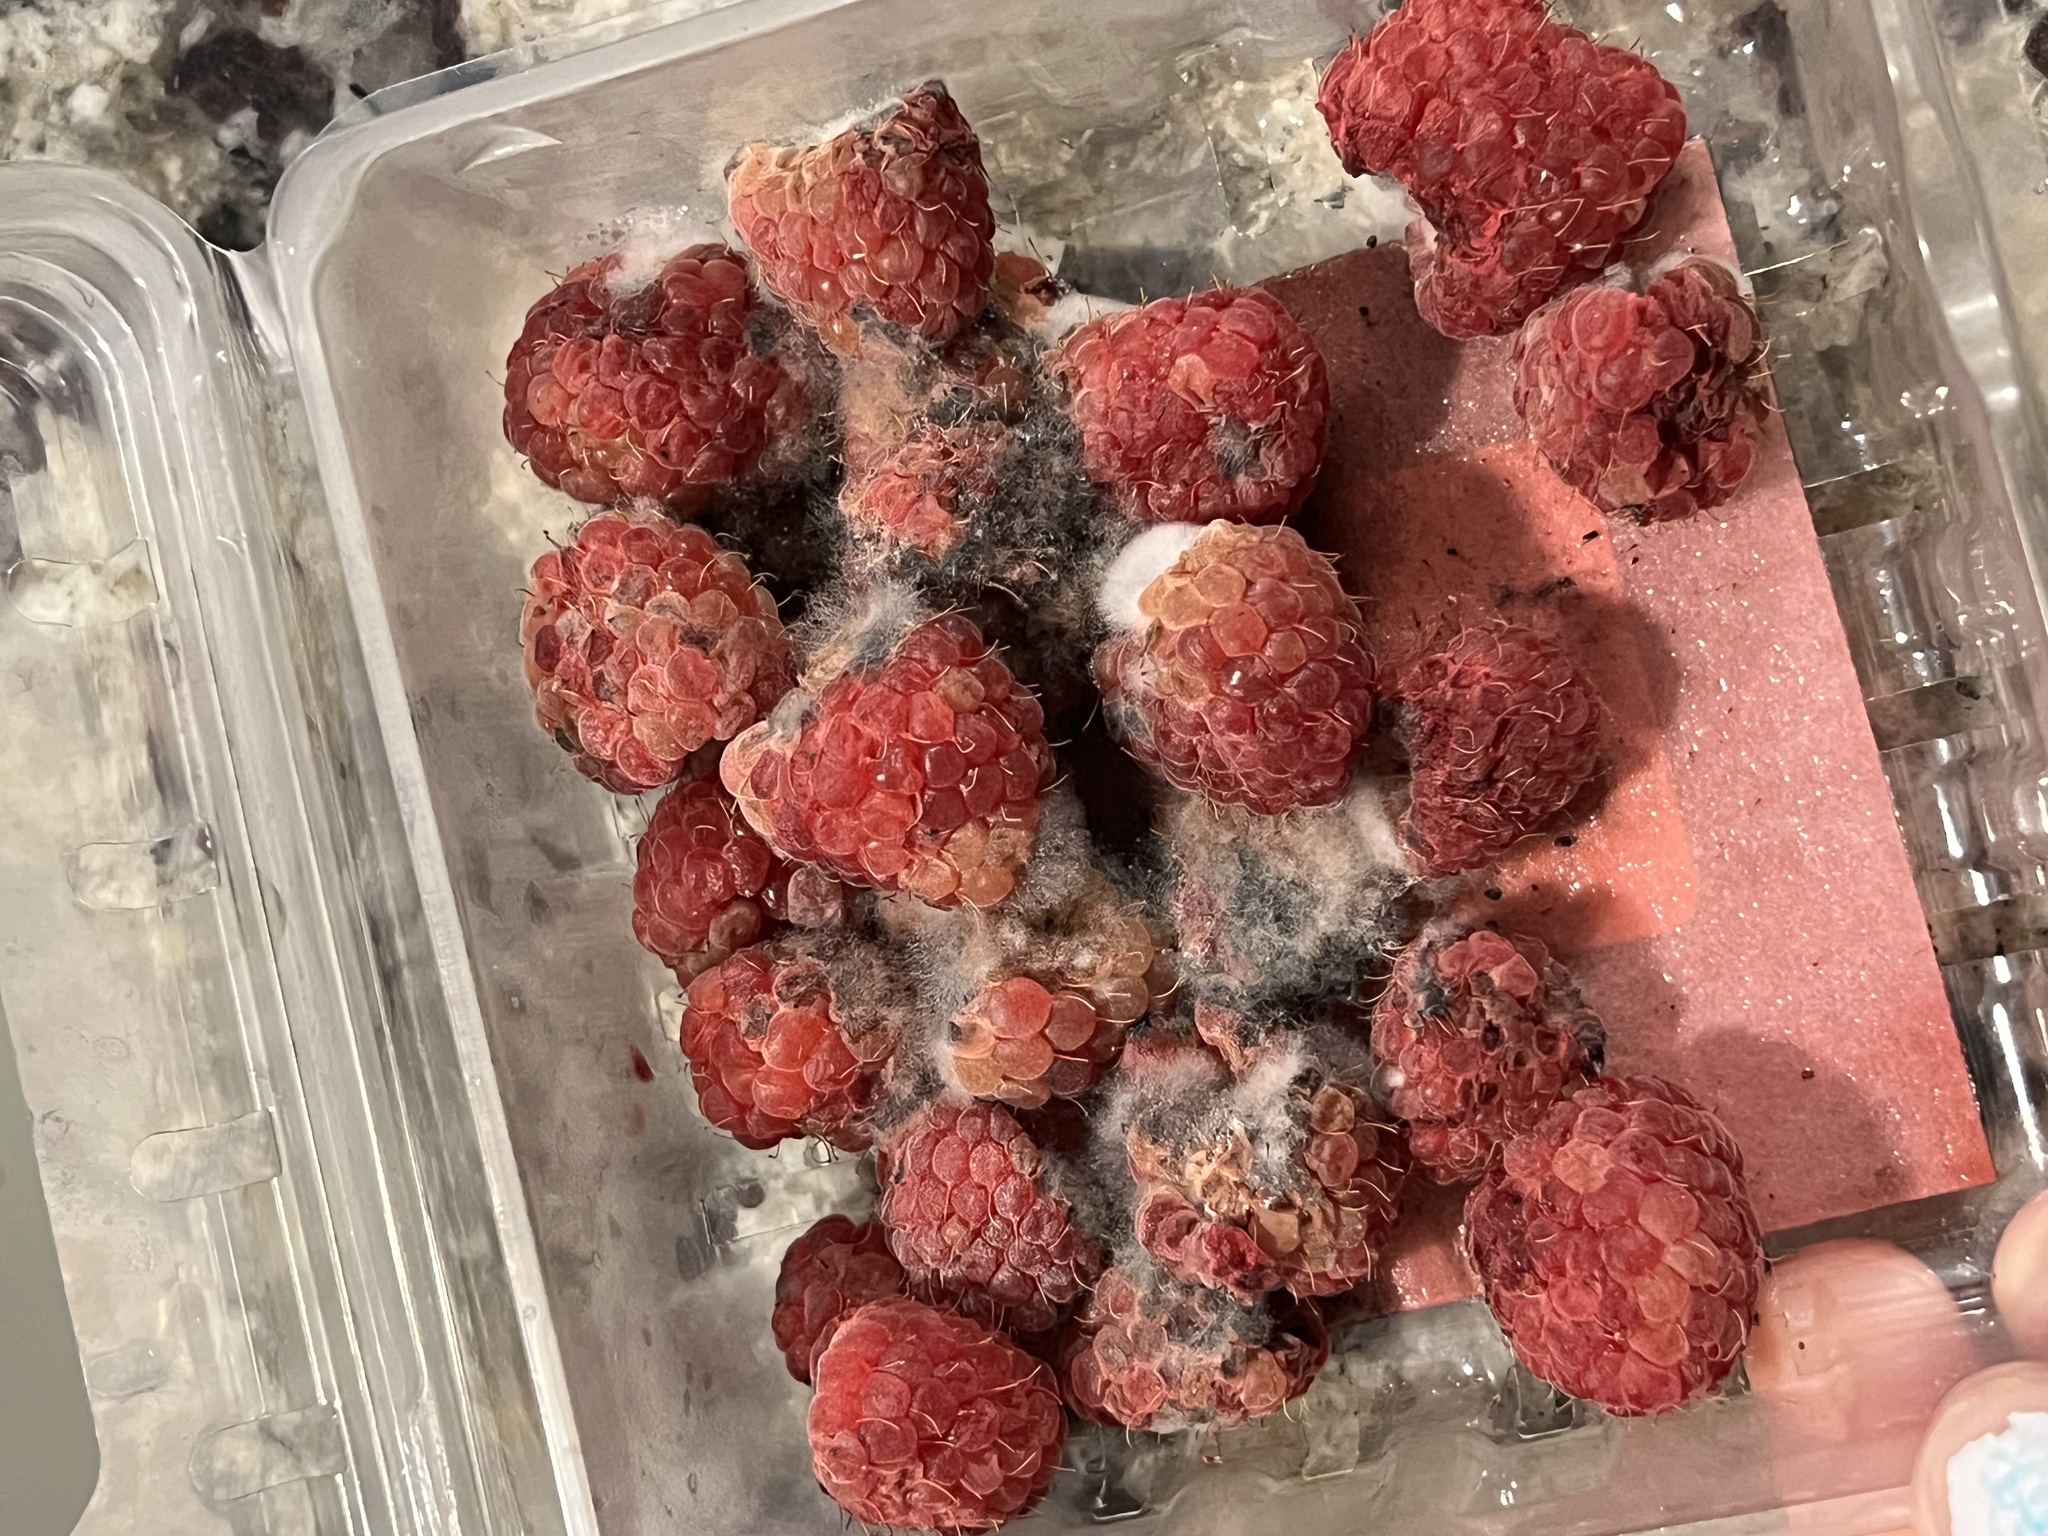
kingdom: Fungi
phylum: Ascomycota
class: Leotiomycetes
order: Helotiales
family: Sclerotiniaceae
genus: Botrytis
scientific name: Botrytis cinerea
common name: Grey mould
